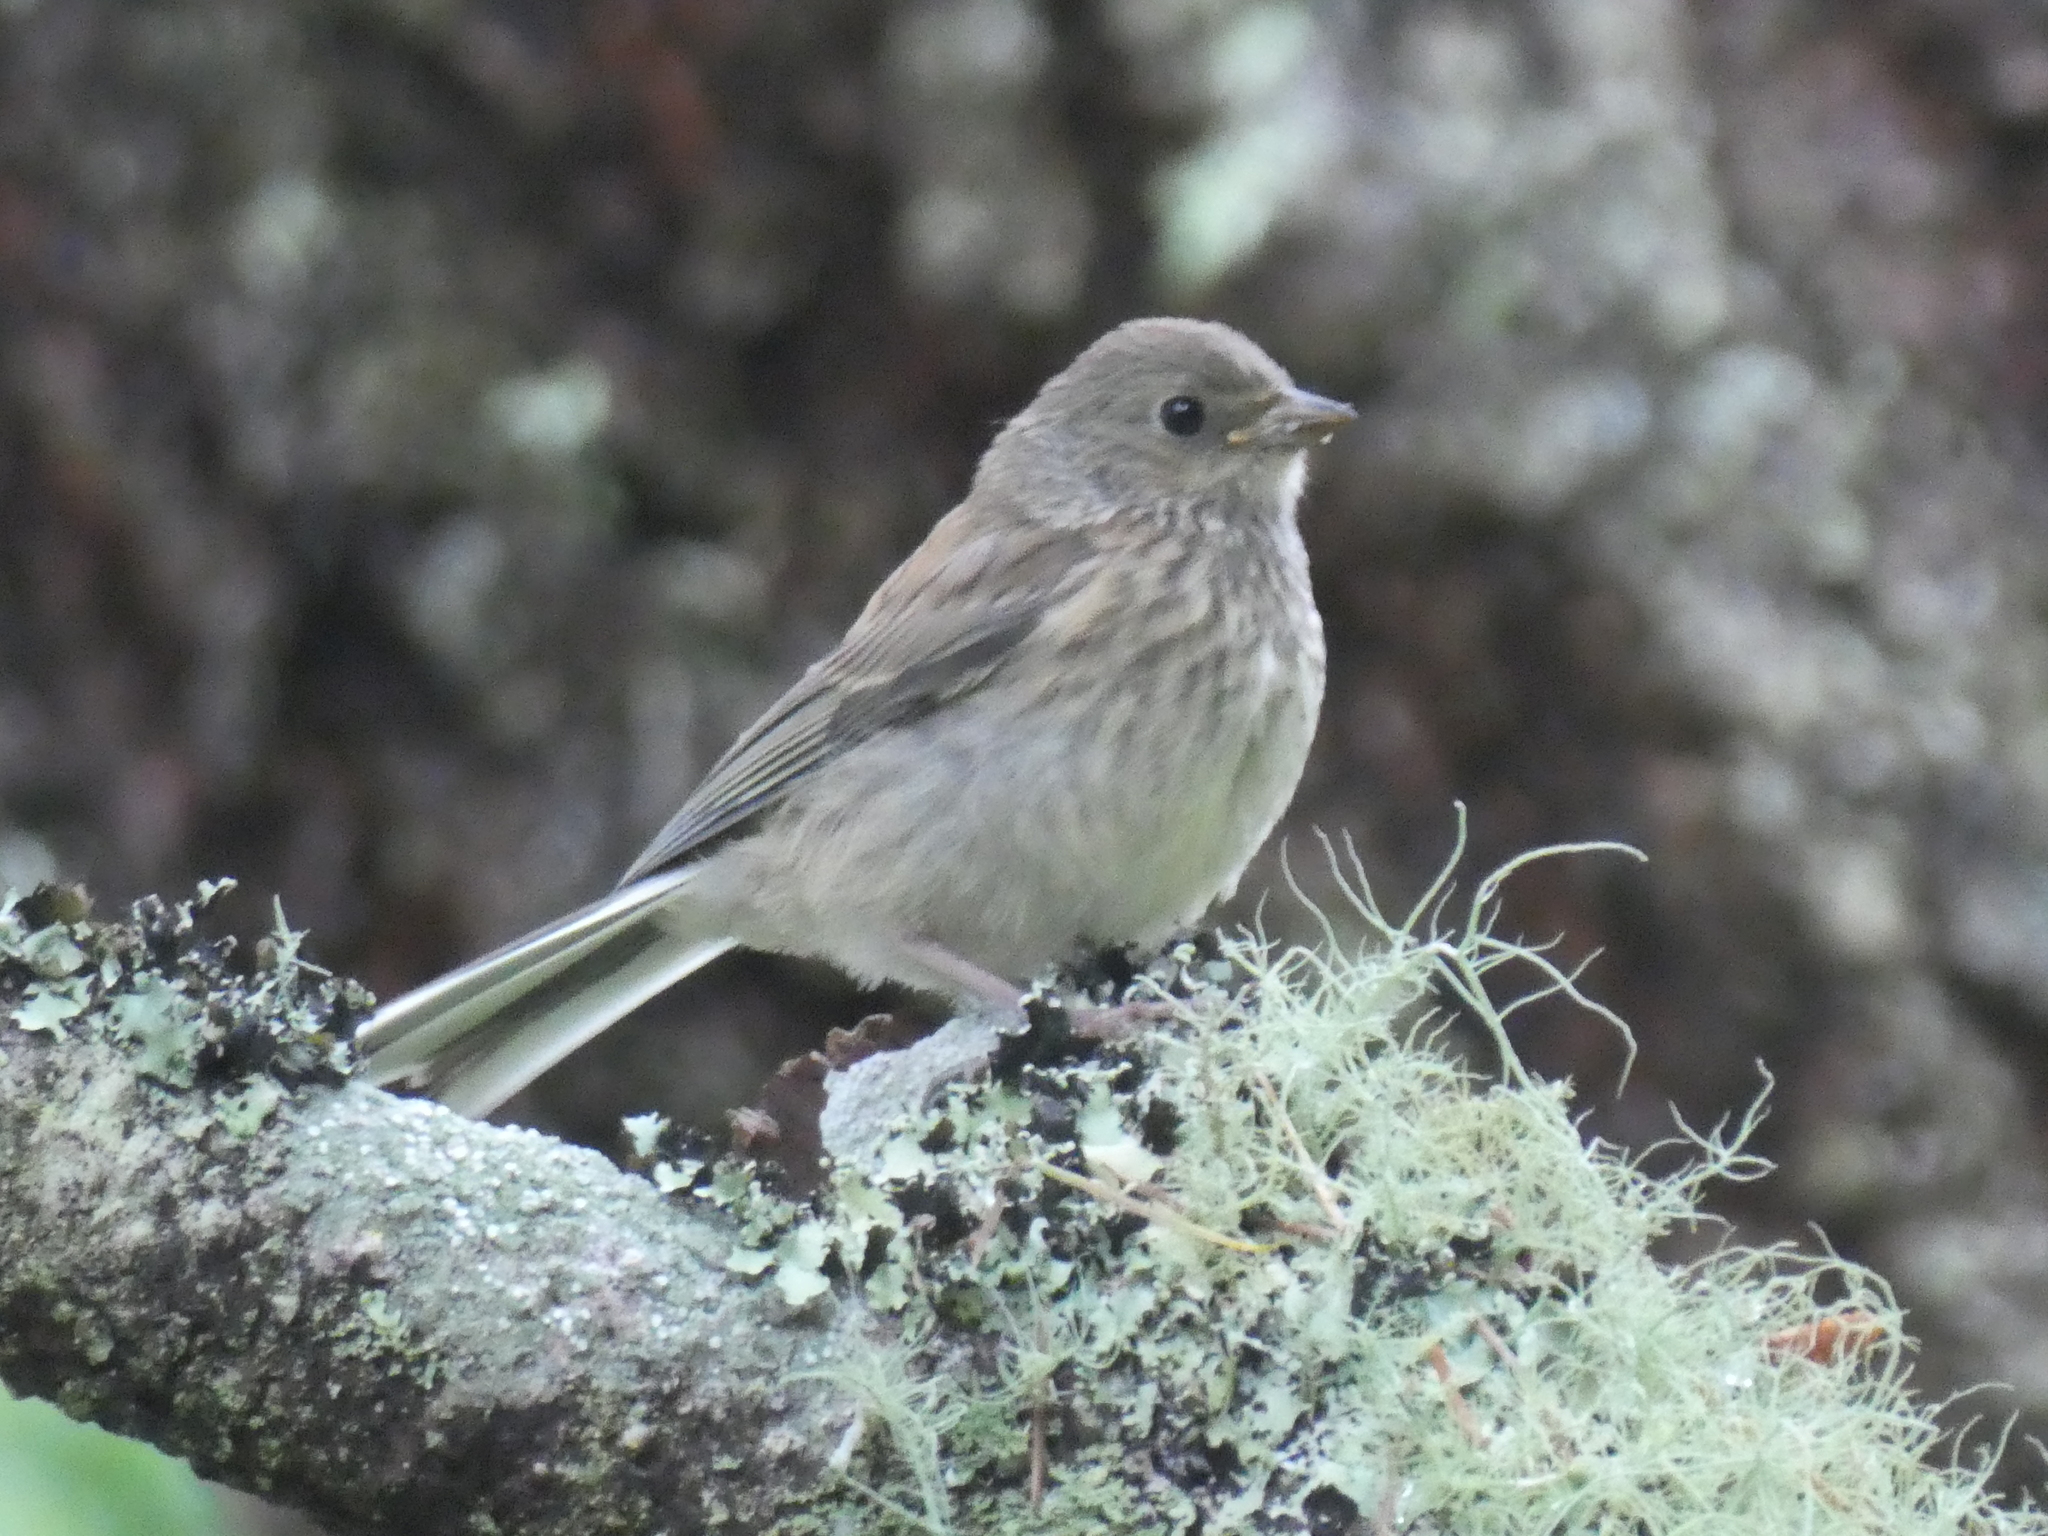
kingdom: Animalia
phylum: Chordata
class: Aves
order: Passeriformes
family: Passerellidae
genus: Junco
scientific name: Junco hyemalis
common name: Dark-eyed junco
